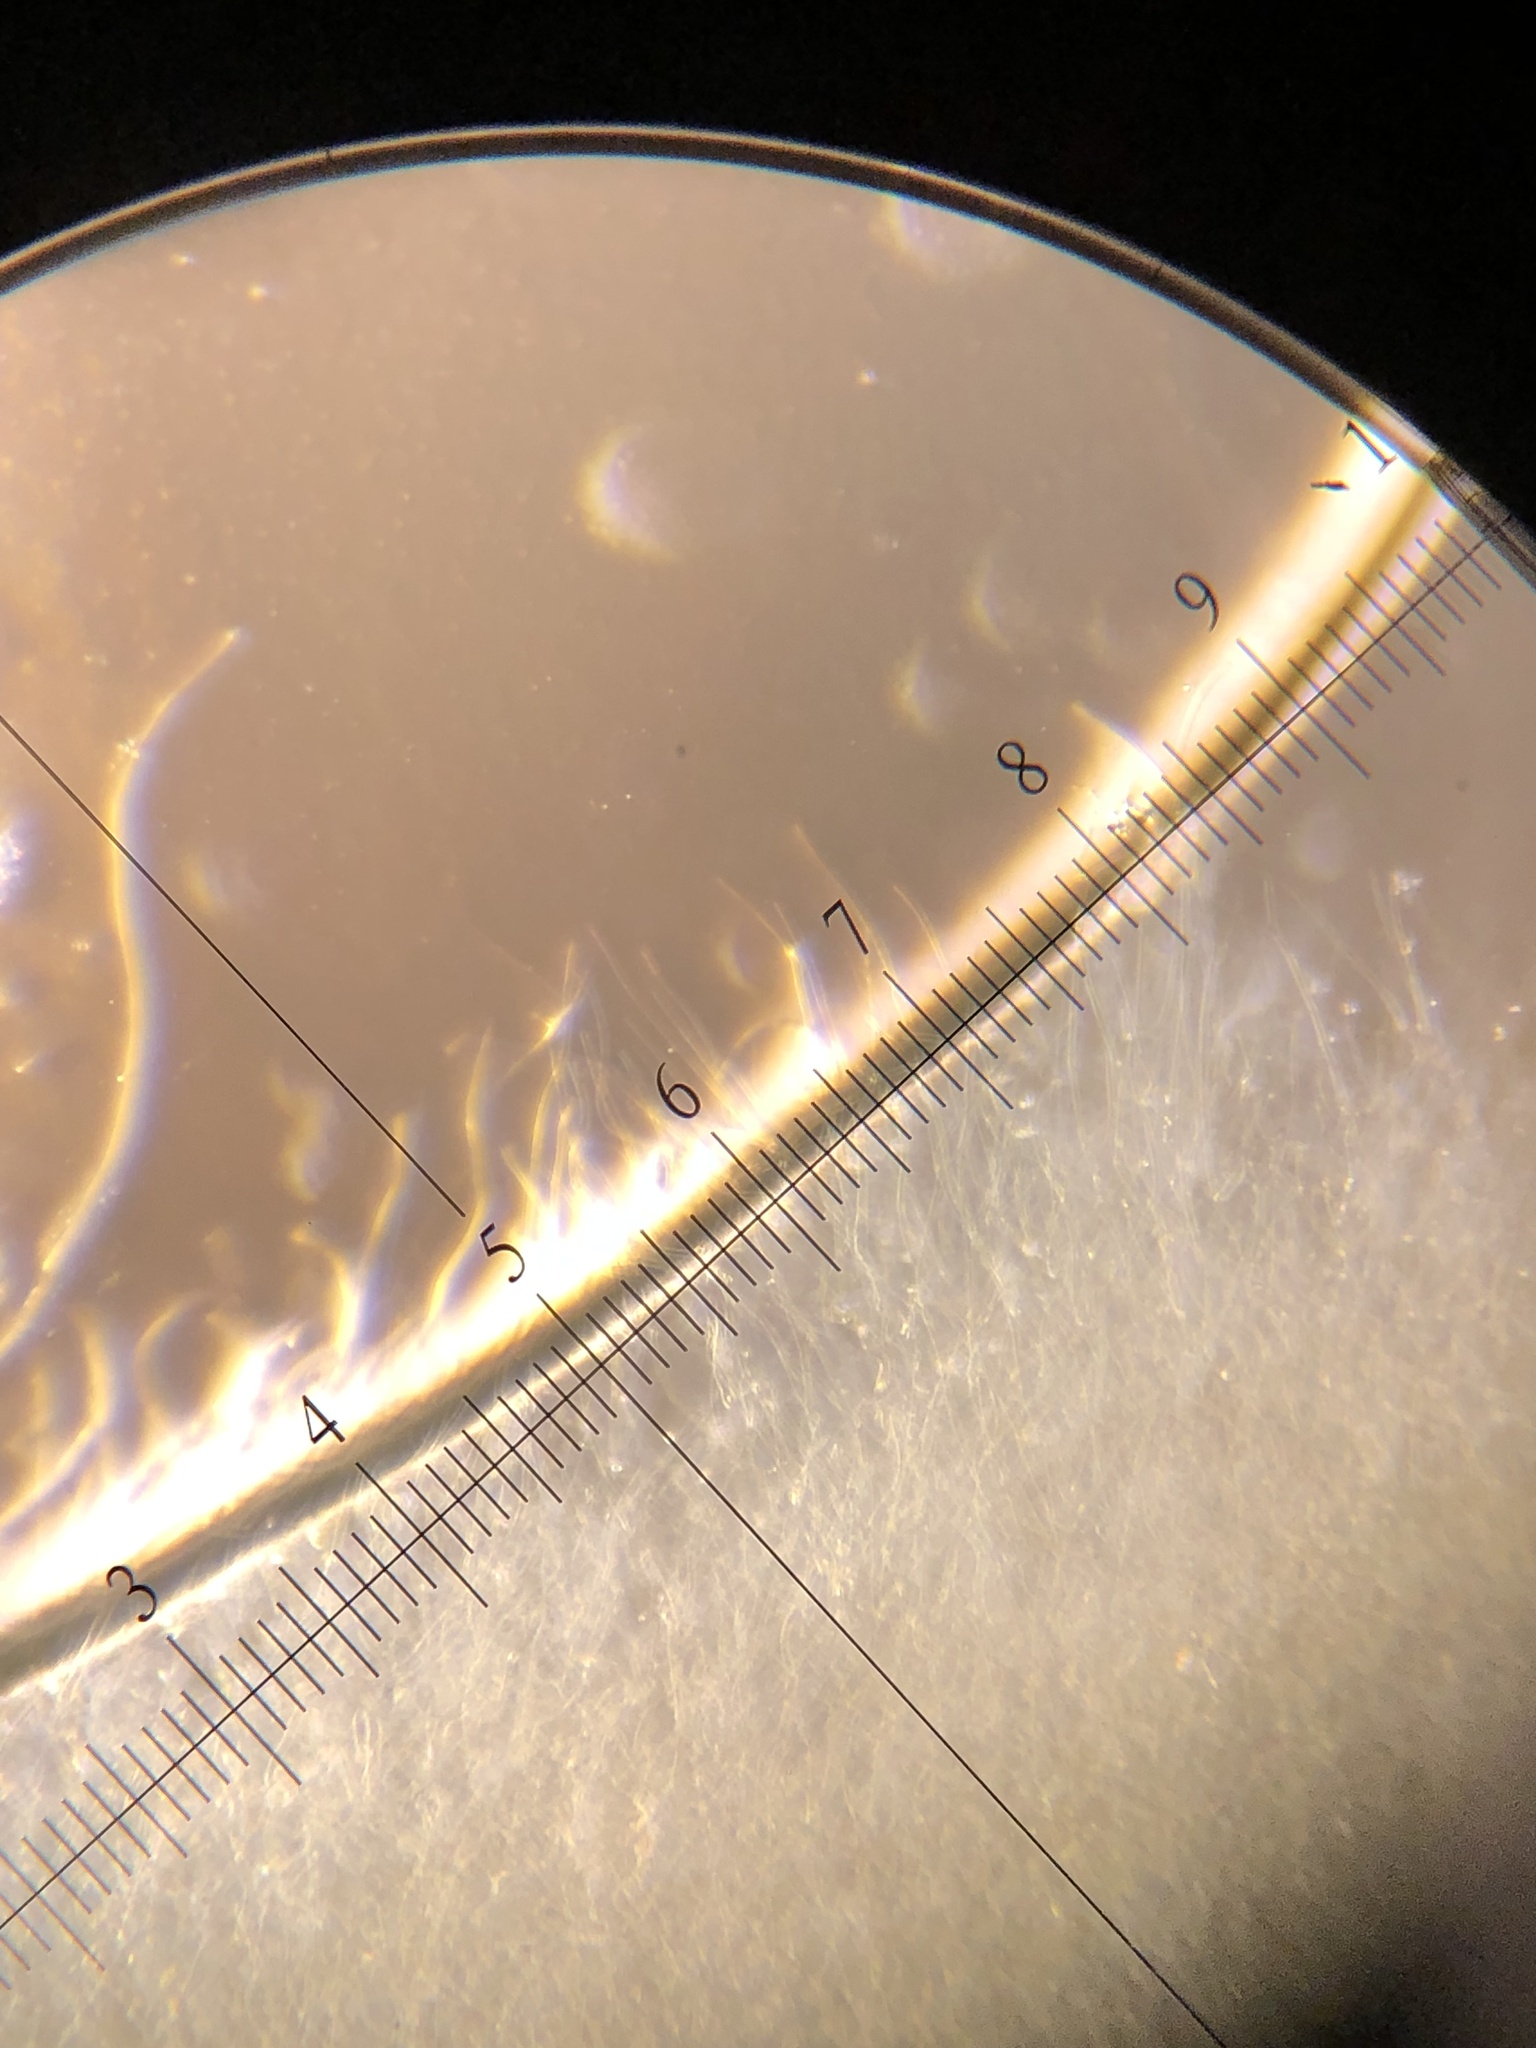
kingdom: Fungi
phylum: Basidiomycota
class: Dacrymycetes
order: Dacrymycetales
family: Dacrymycetaceae
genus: Dacrymyces
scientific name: Dacrymyces chrysospermus
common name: Orange jelly spot
